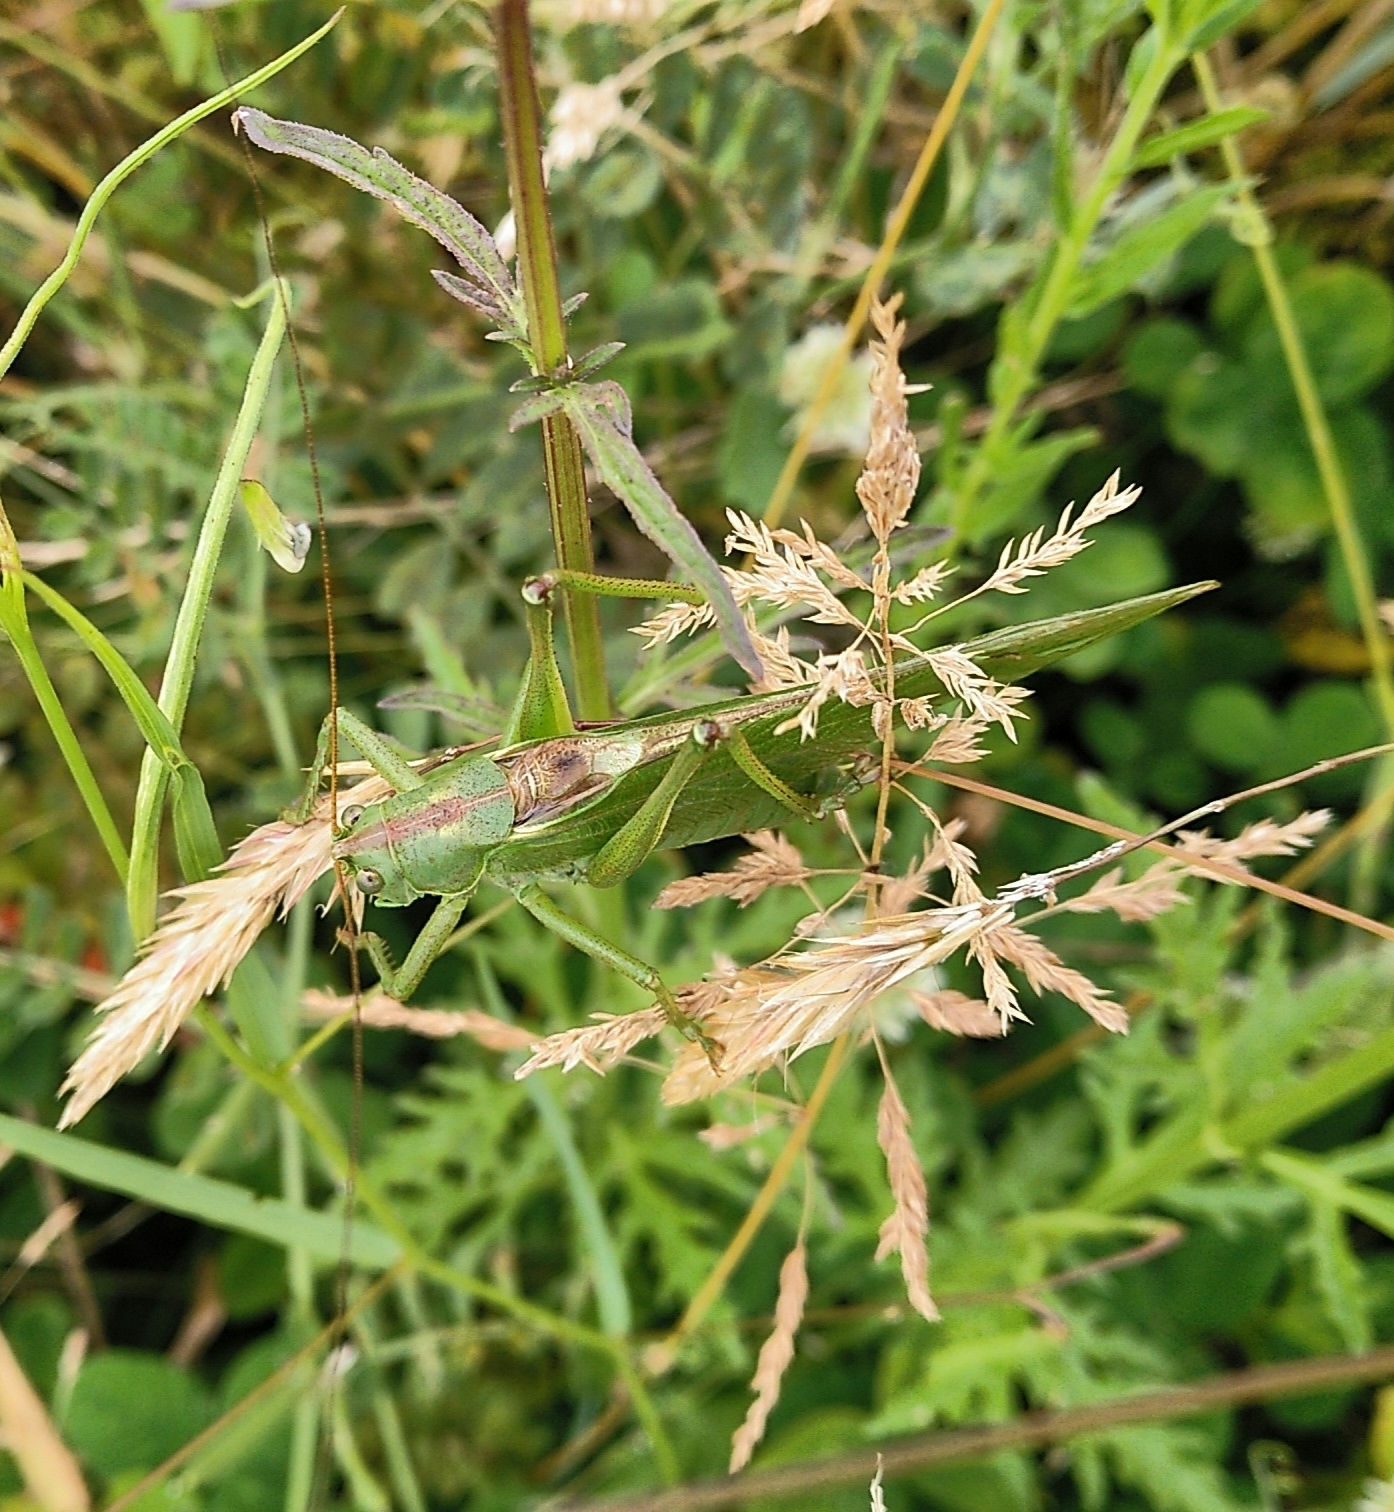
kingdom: Animalia
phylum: Arthropoda
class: Insecta
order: Orthoptera
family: Tettigoniidae
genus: Tettigonia
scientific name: Tettigonia viridissima
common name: Great green bush-cricket
